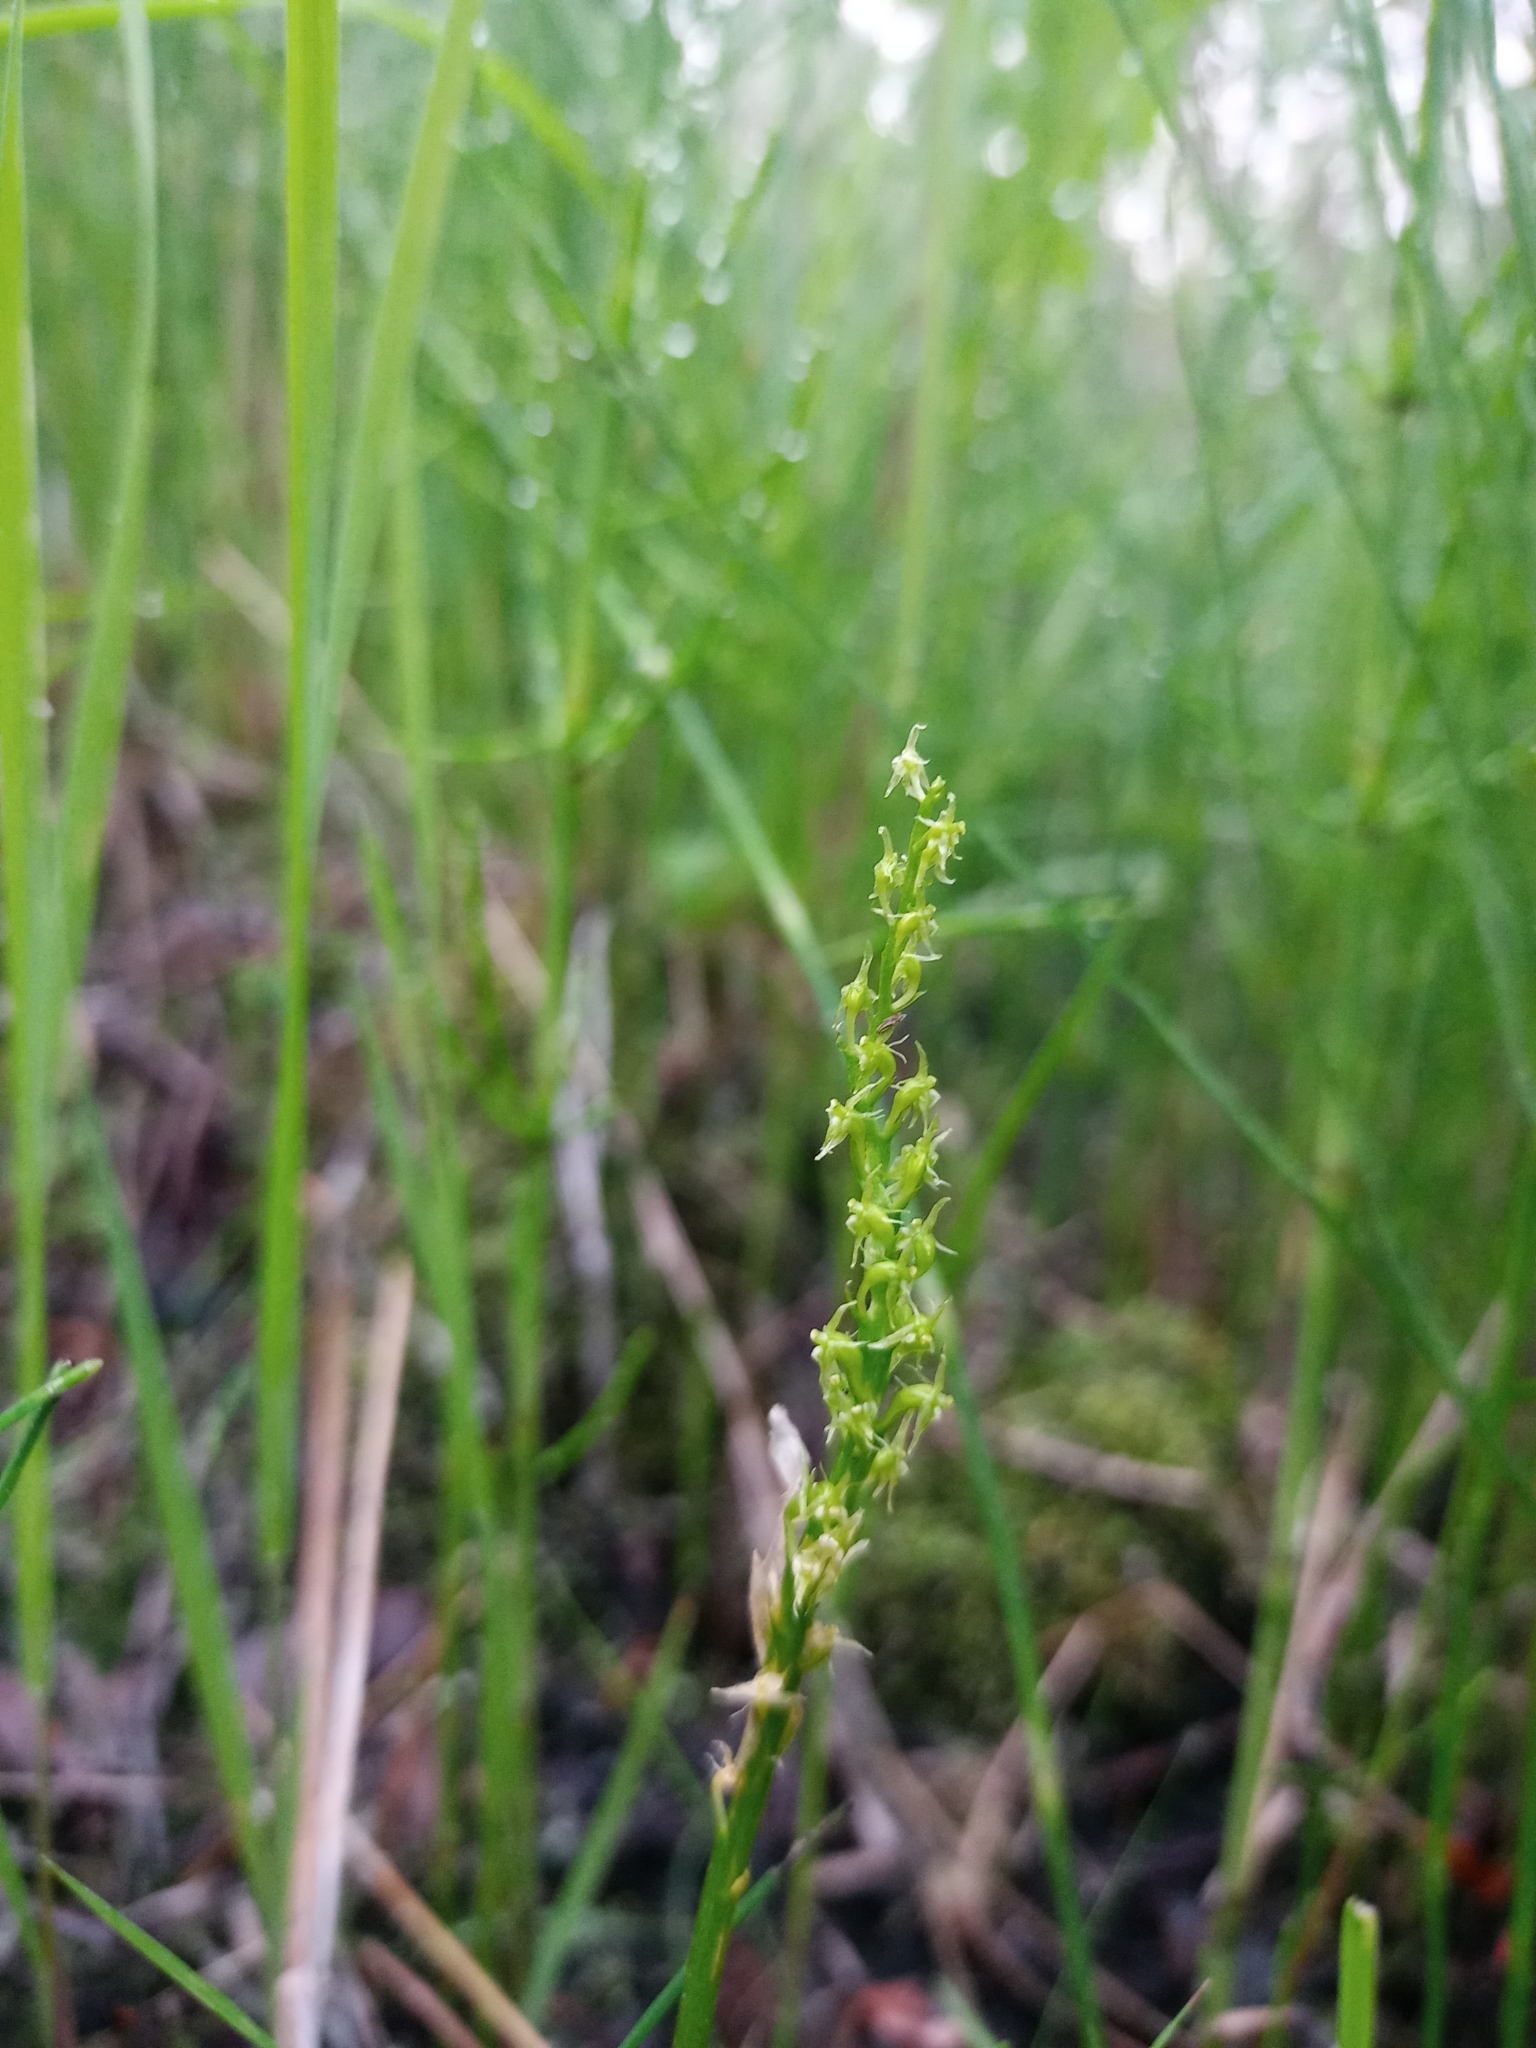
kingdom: Plantae
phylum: Tracheophyta
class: Liliopsida
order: Asparagales
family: Orchidaceae
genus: Malaxis
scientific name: Malaxis monophyllos
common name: White adder's-mouth
